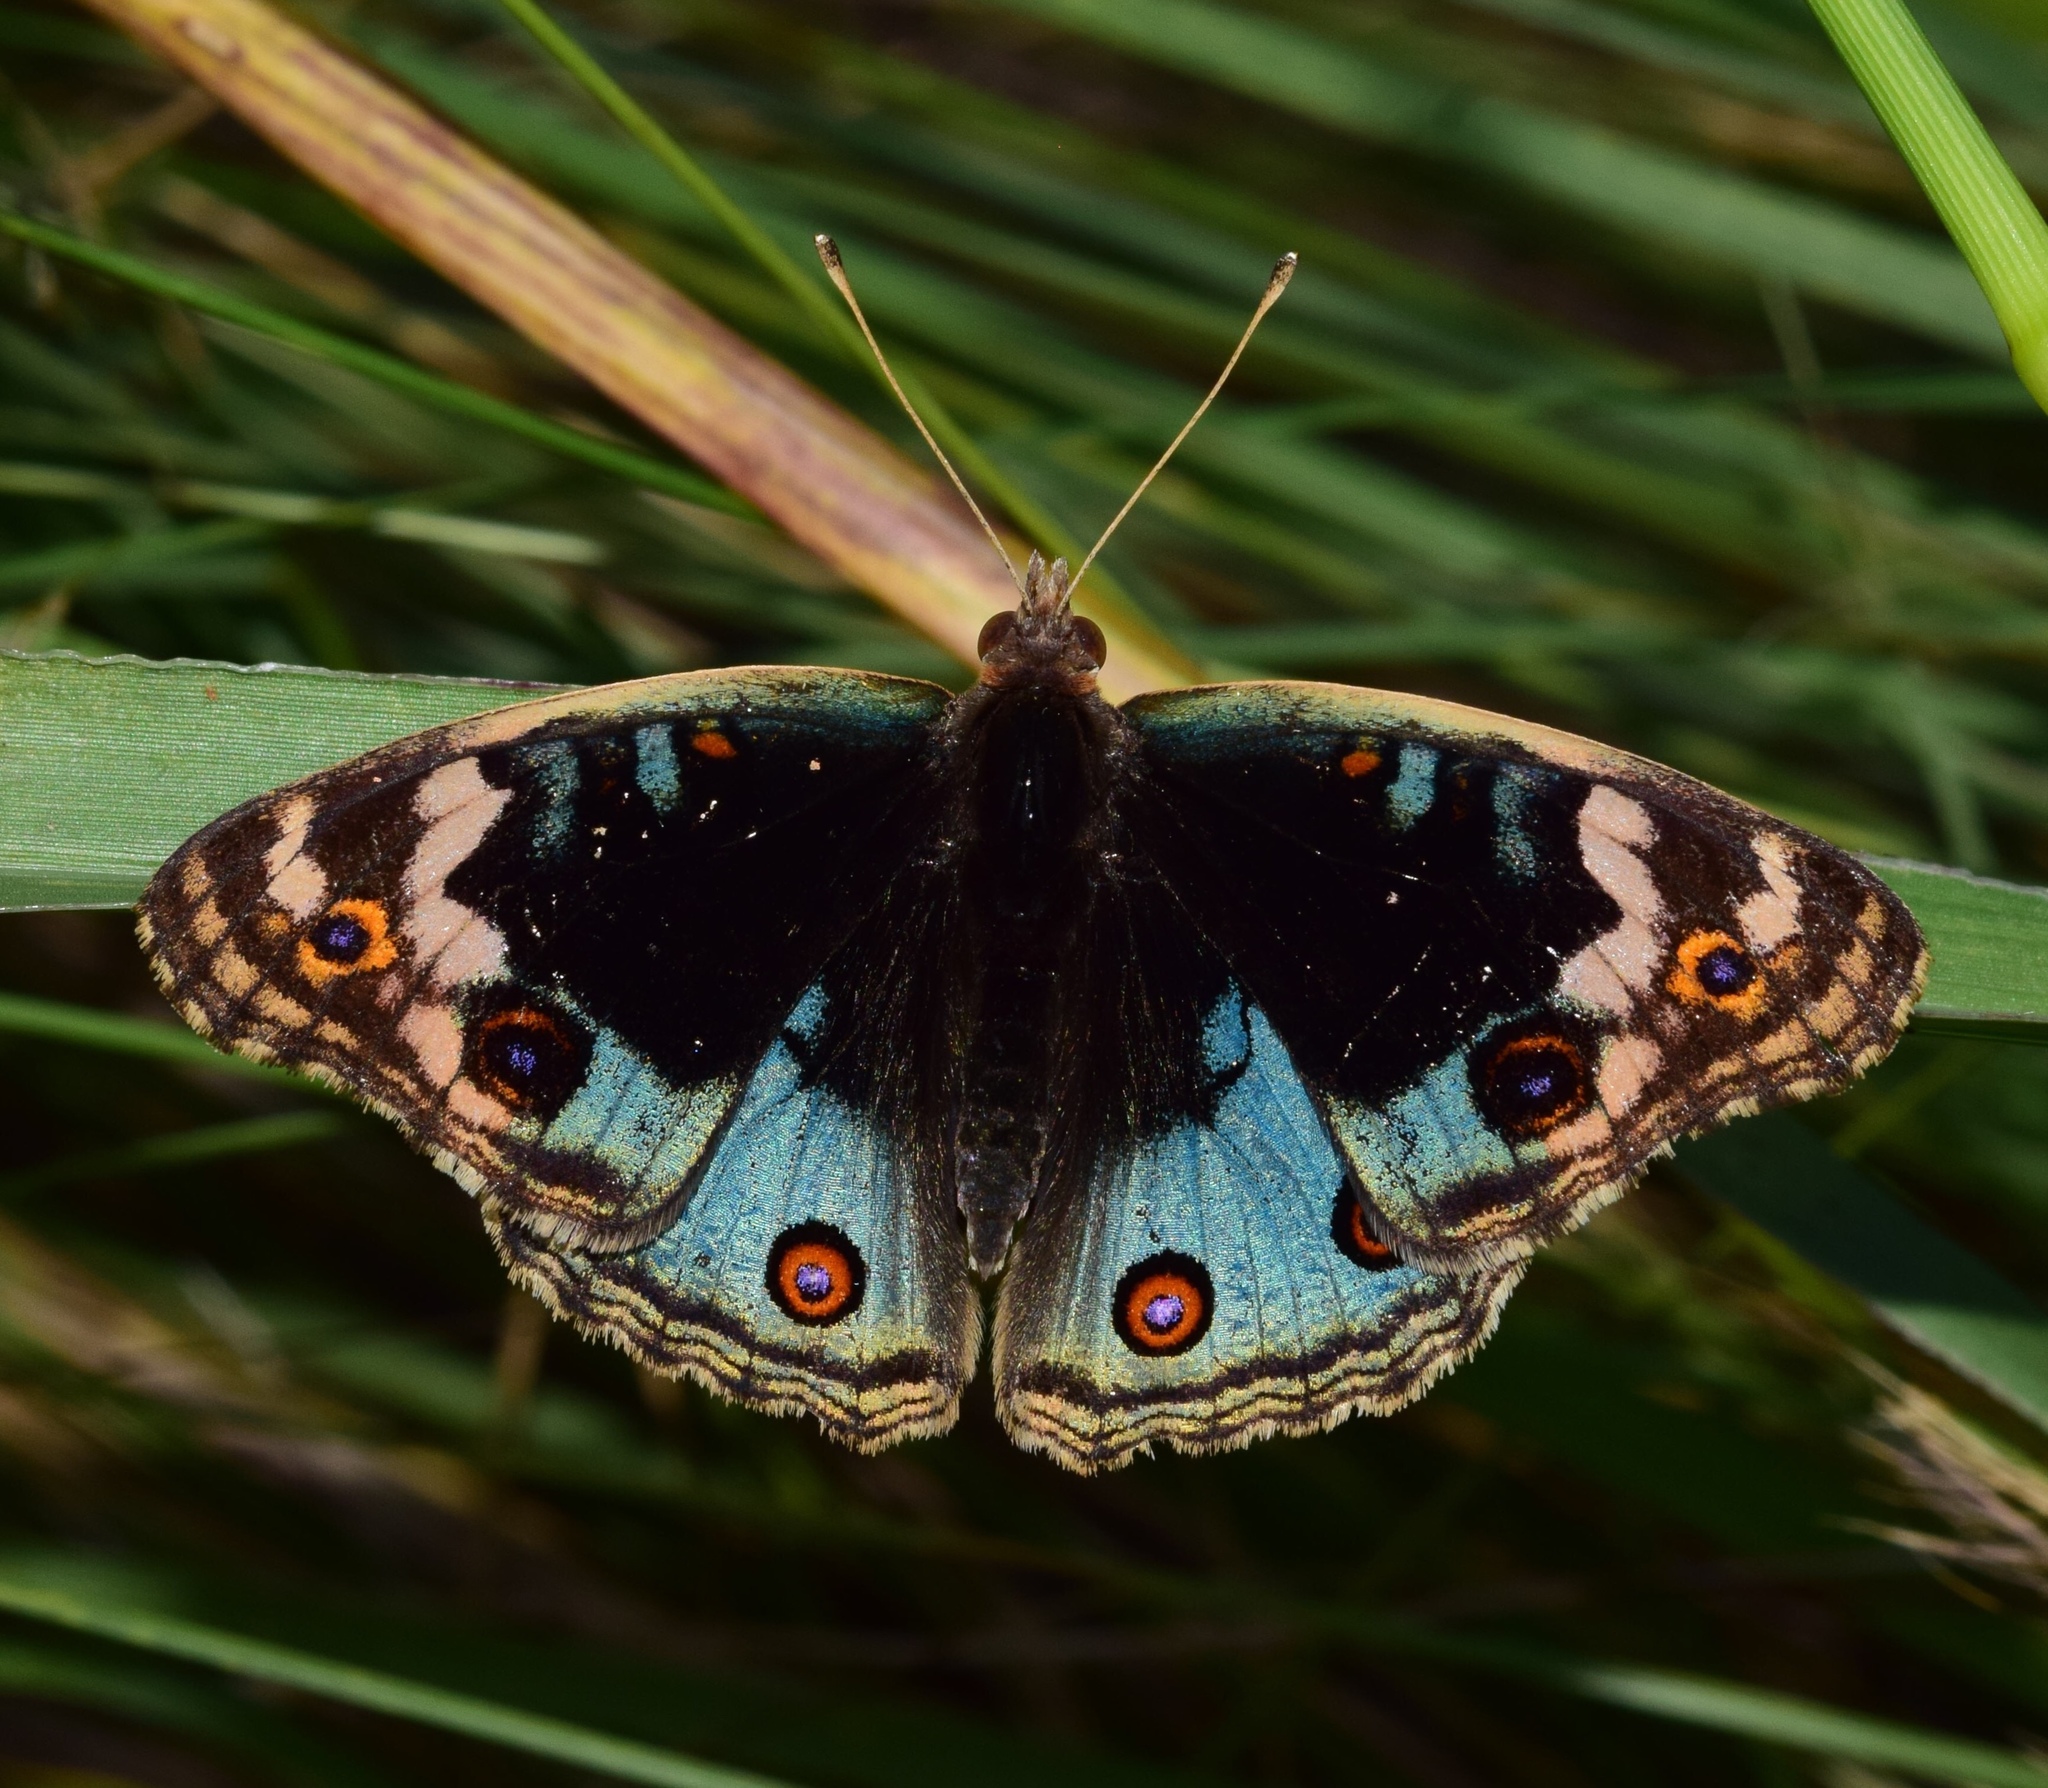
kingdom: Animalia
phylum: Arthropoda
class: Insecta
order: Lepidoptera
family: Nymphalidae
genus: Junonia
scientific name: Junonia orithya
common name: Blue pansy
